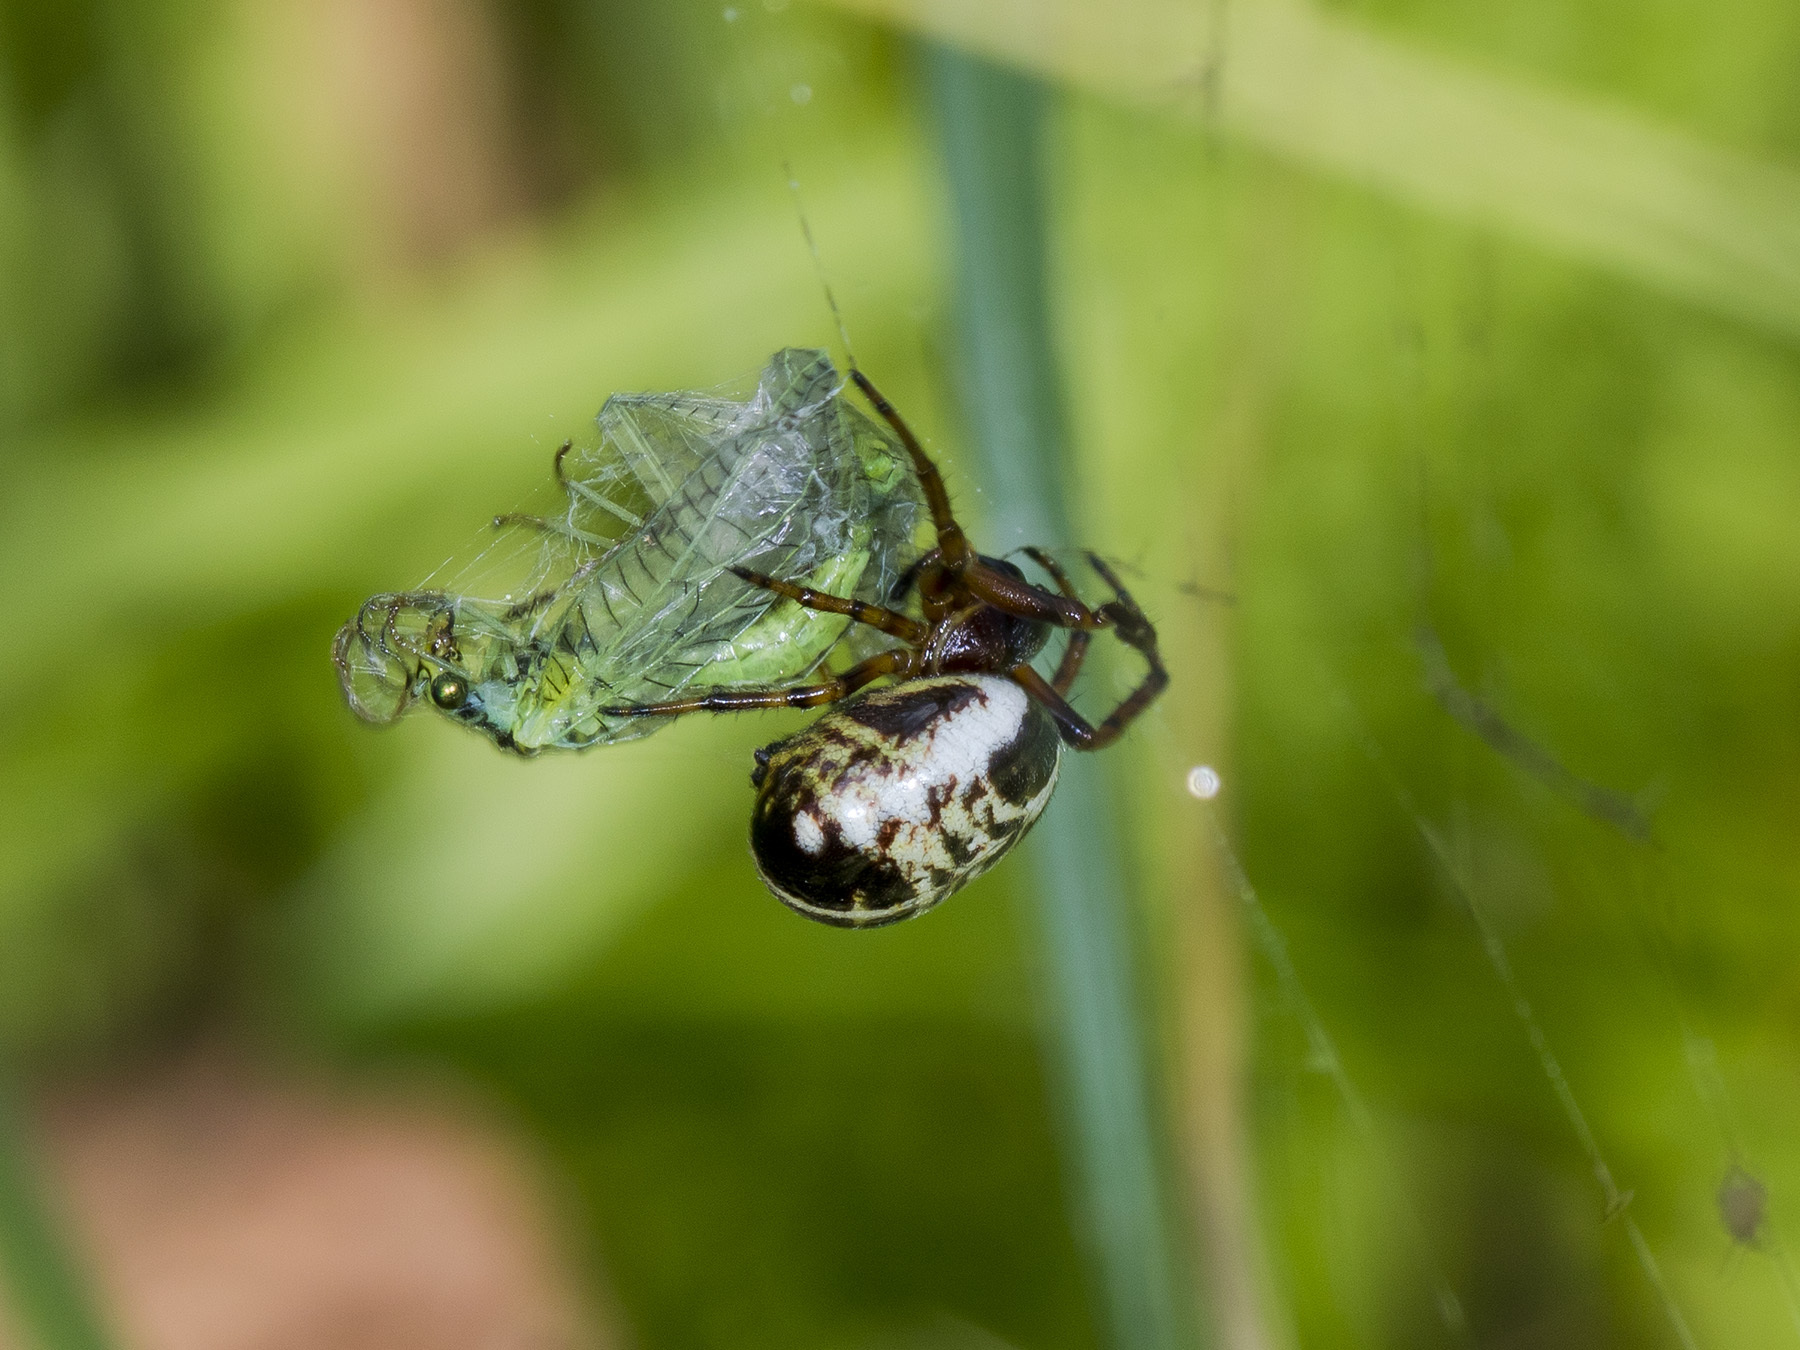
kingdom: Animalia
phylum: Arthropoda
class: Arachnida
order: Araneae
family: Araneidae
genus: Singa
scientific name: Singa hamata
